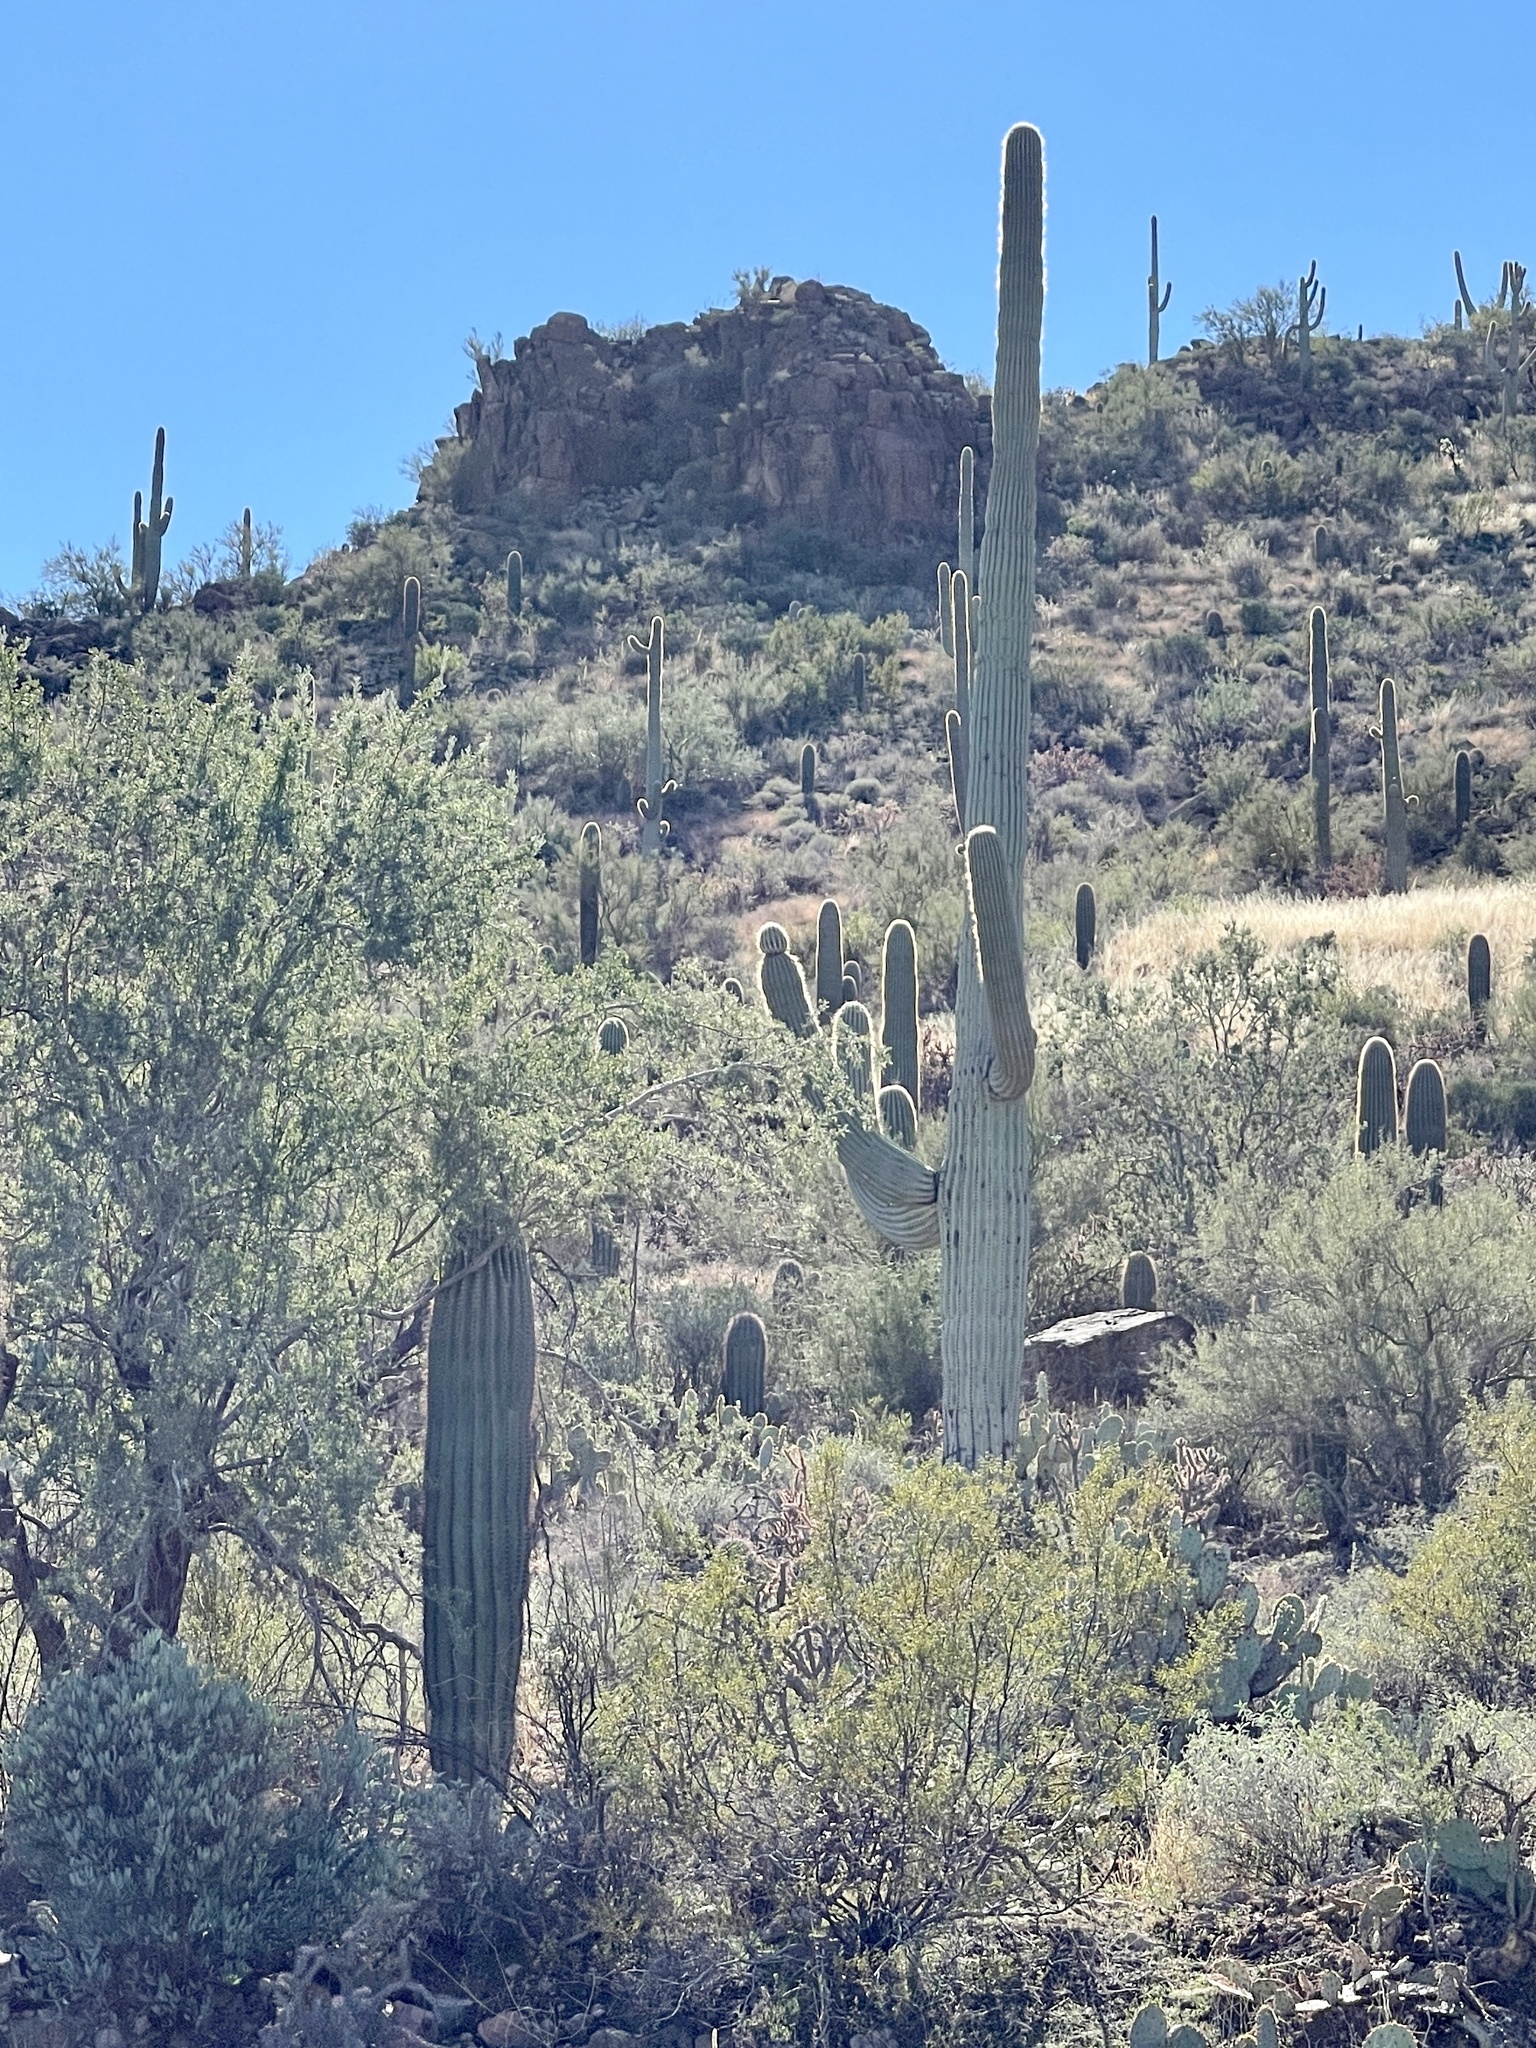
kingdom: Plantae
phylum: Tracheophyta
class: Magnoliopsida
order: Caryophyllales
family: Cactaceae
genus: Carnegiea
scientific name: Carnegiea gigantea
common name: Saguaro
